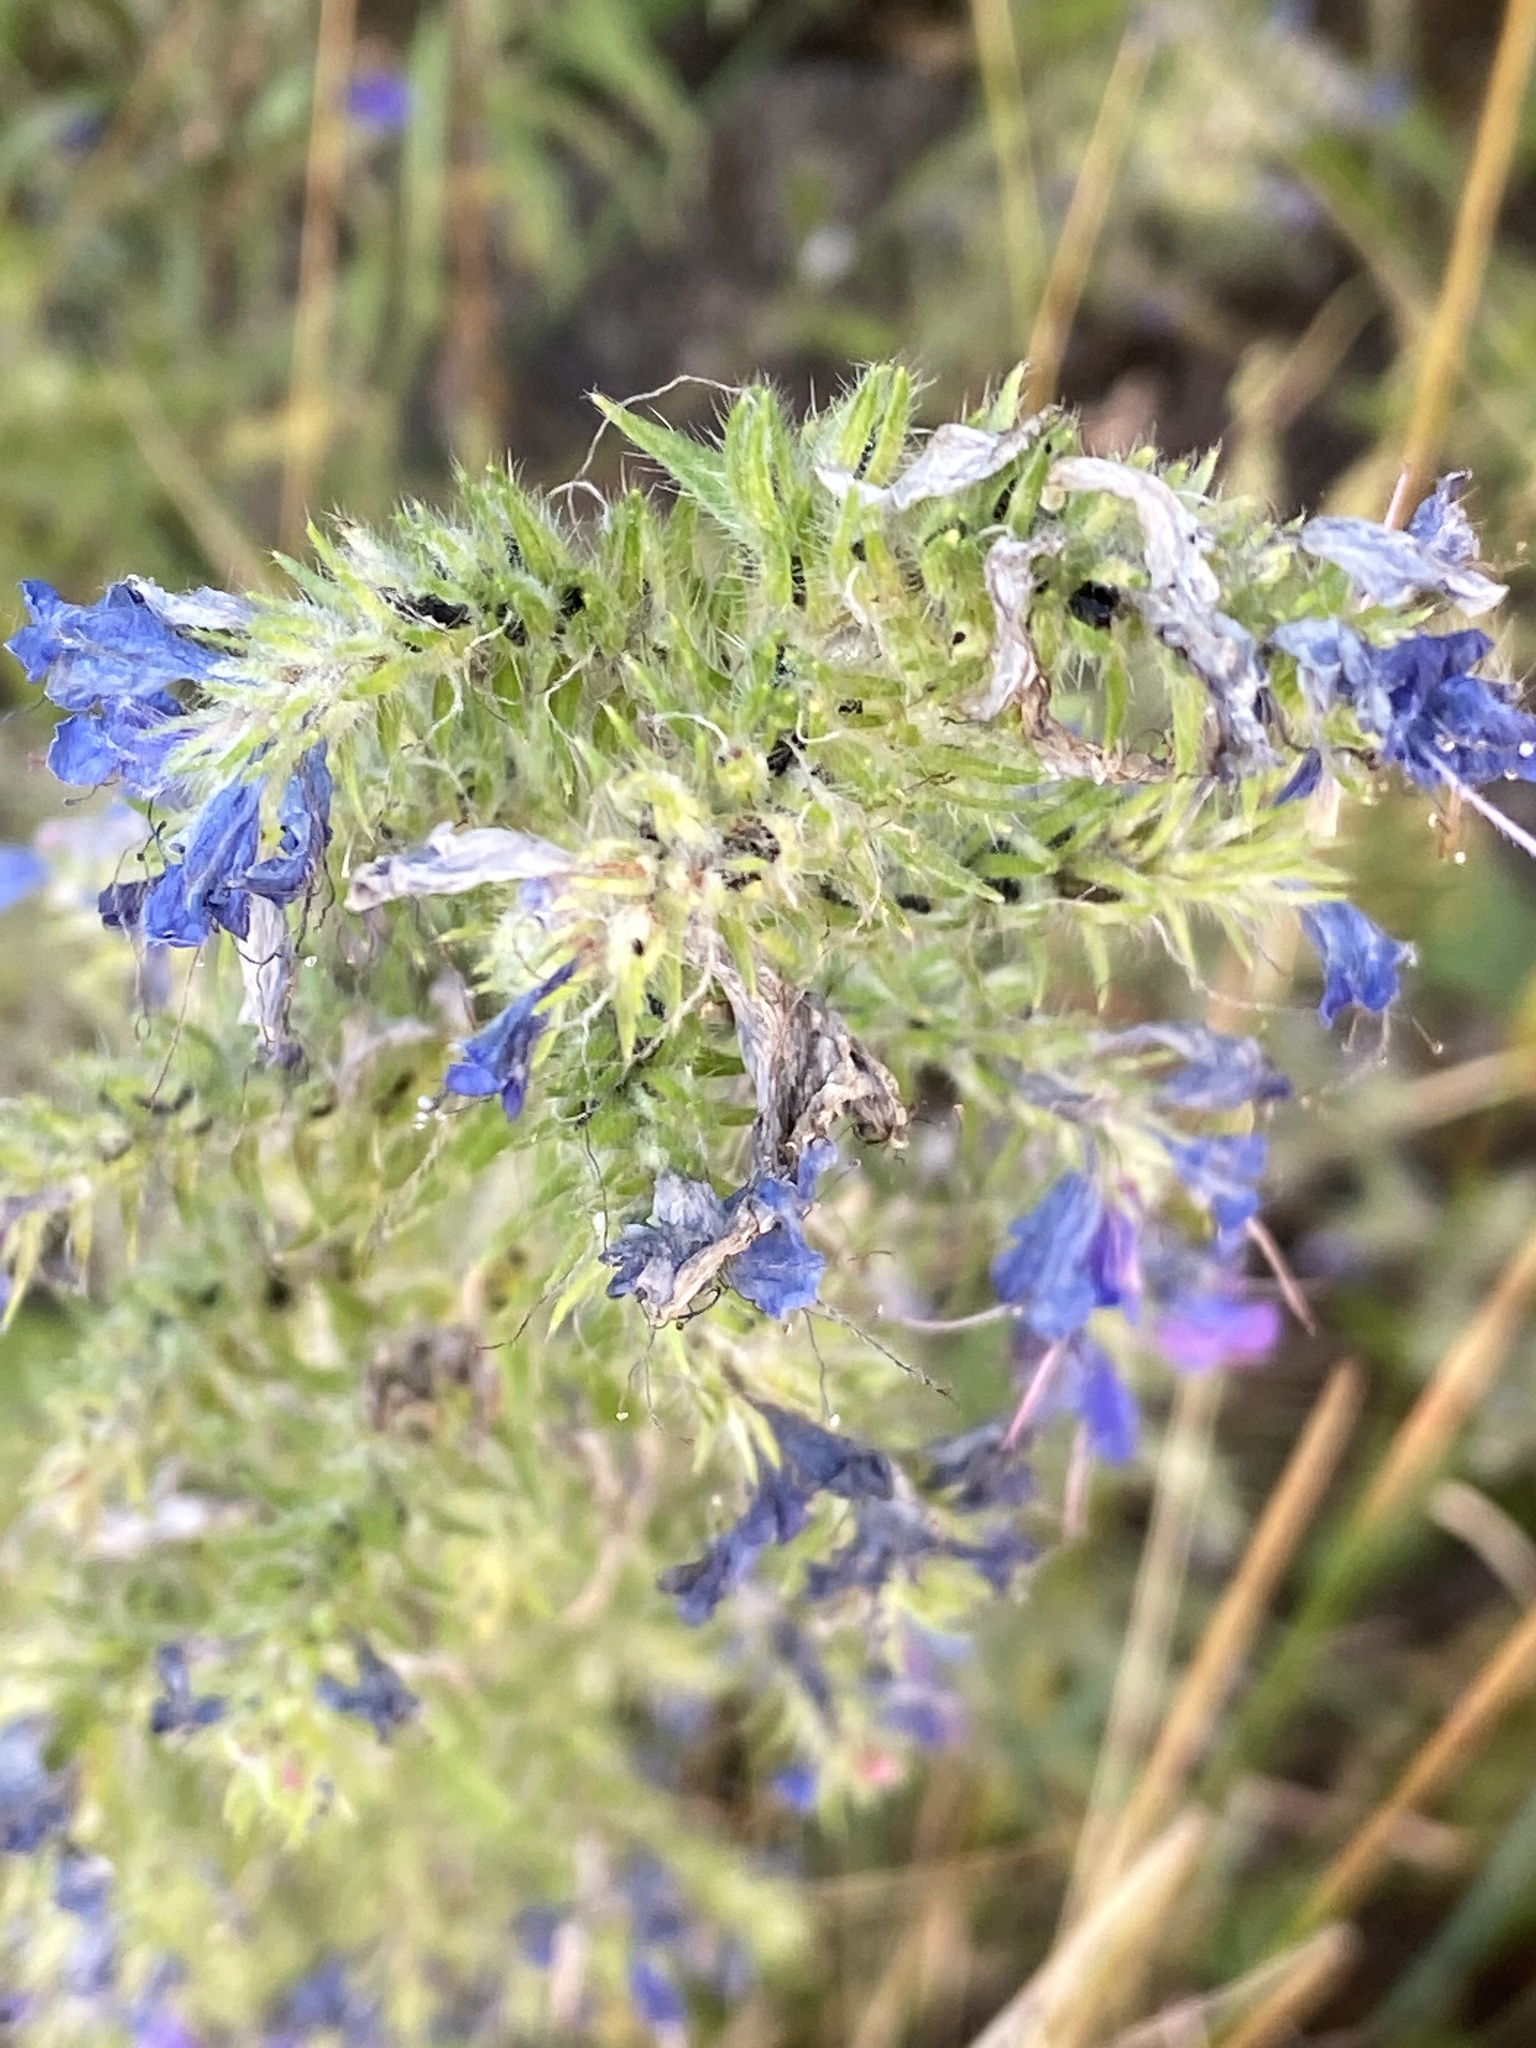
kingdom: Plantae
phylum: Tracheophyta
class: Magnoliopsida
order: Boraginales
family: Boraginaceae
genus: Echium
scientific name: Echium vulgare
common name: Common viper's bugloss
